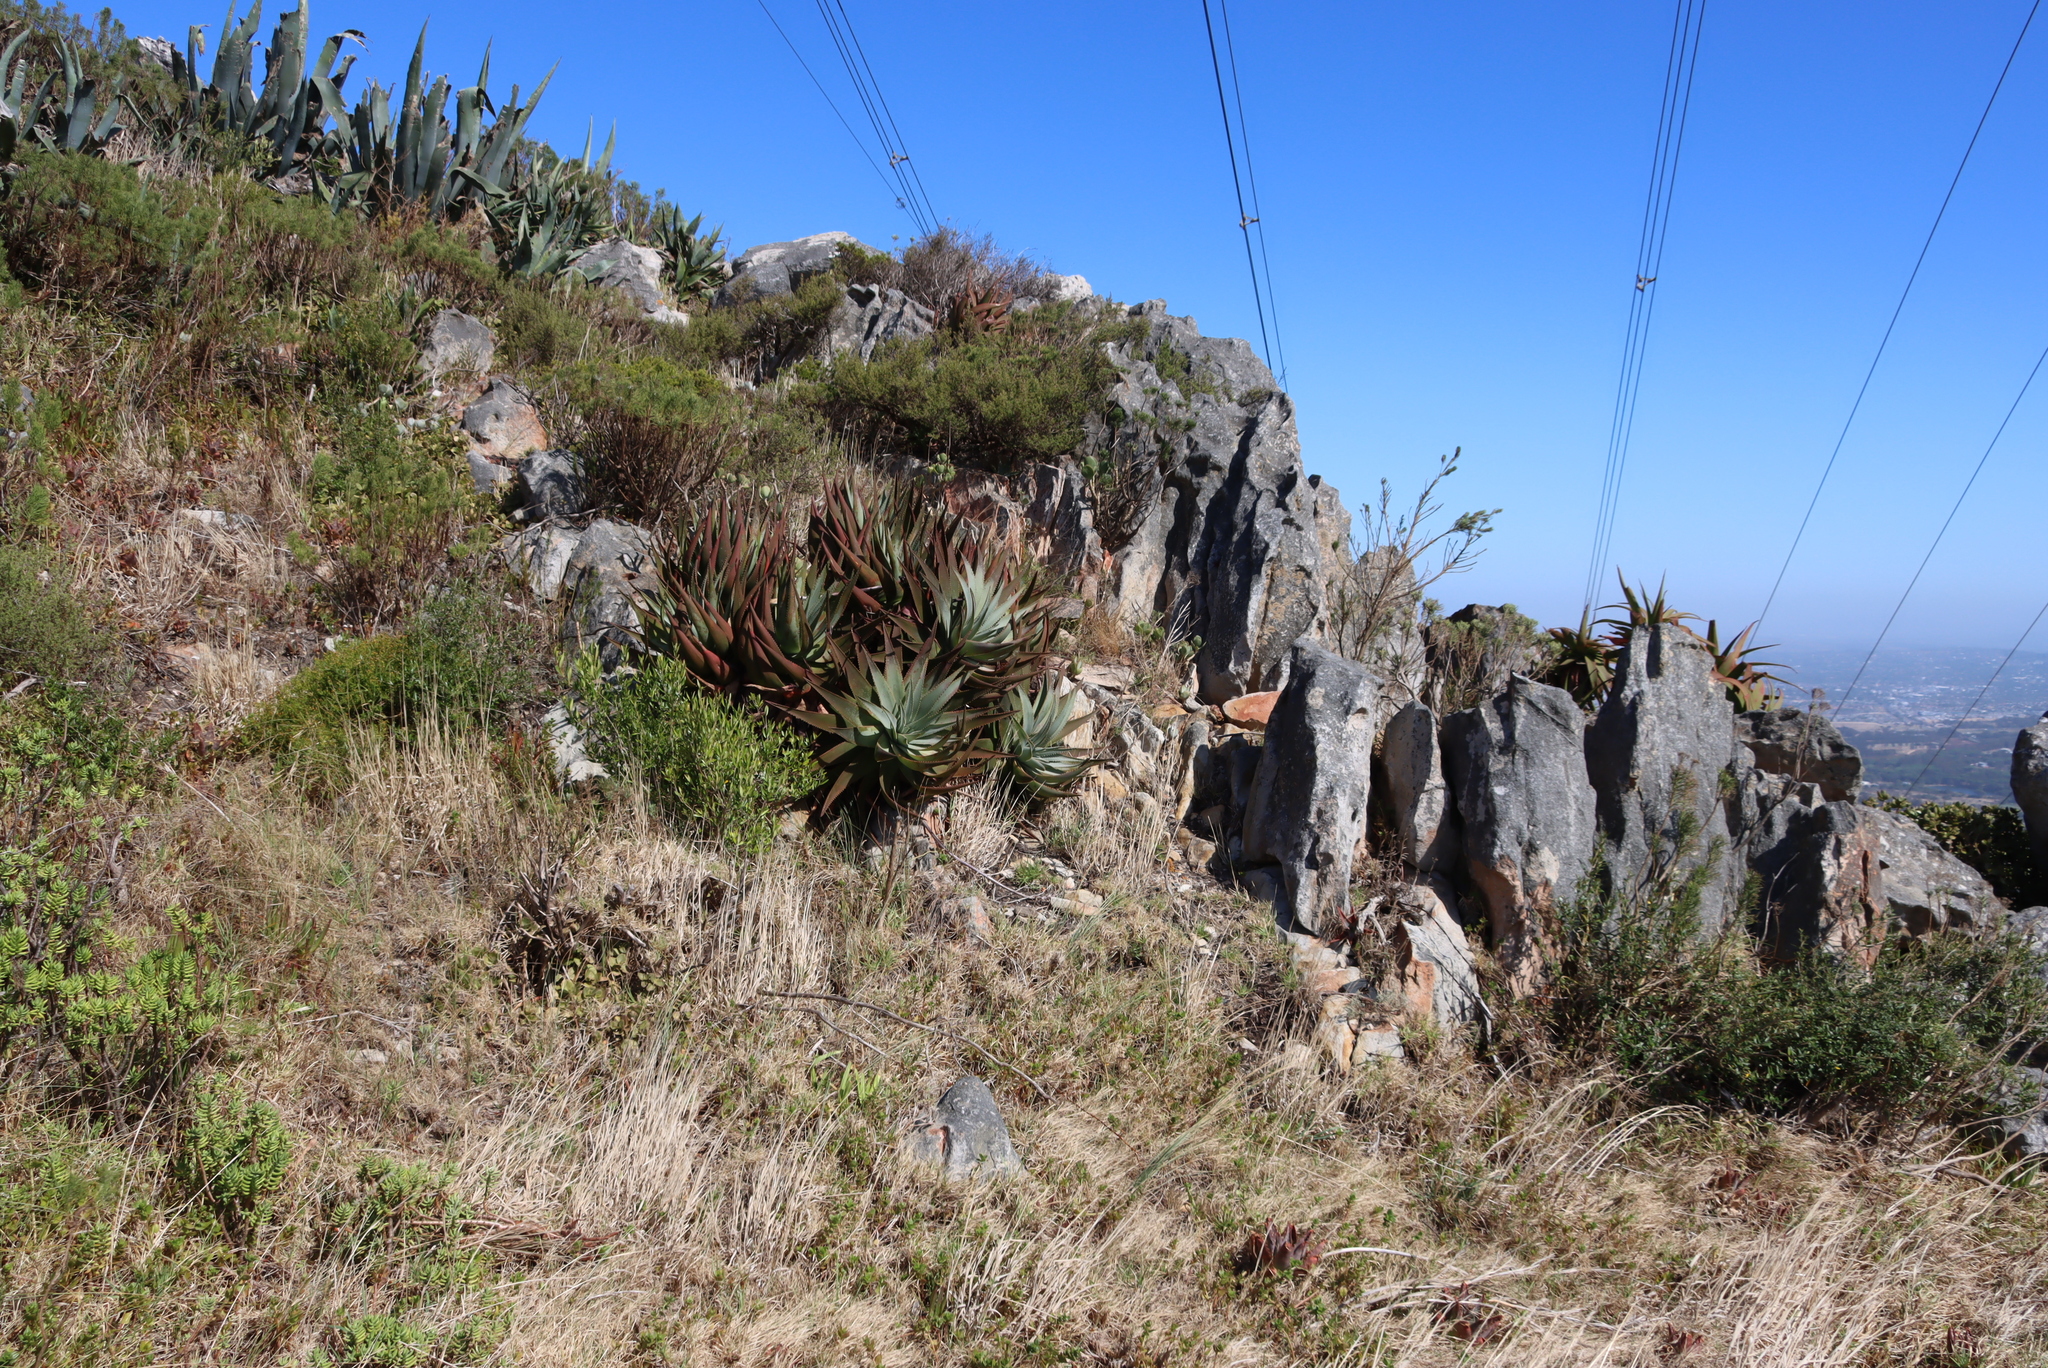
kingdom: Plantae
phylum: Tracheophyta
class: Liliopsida
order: Asparagales
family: Asphodelaceae
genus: Aloe
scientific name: Aloe succotrina
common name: Bombay aloe
